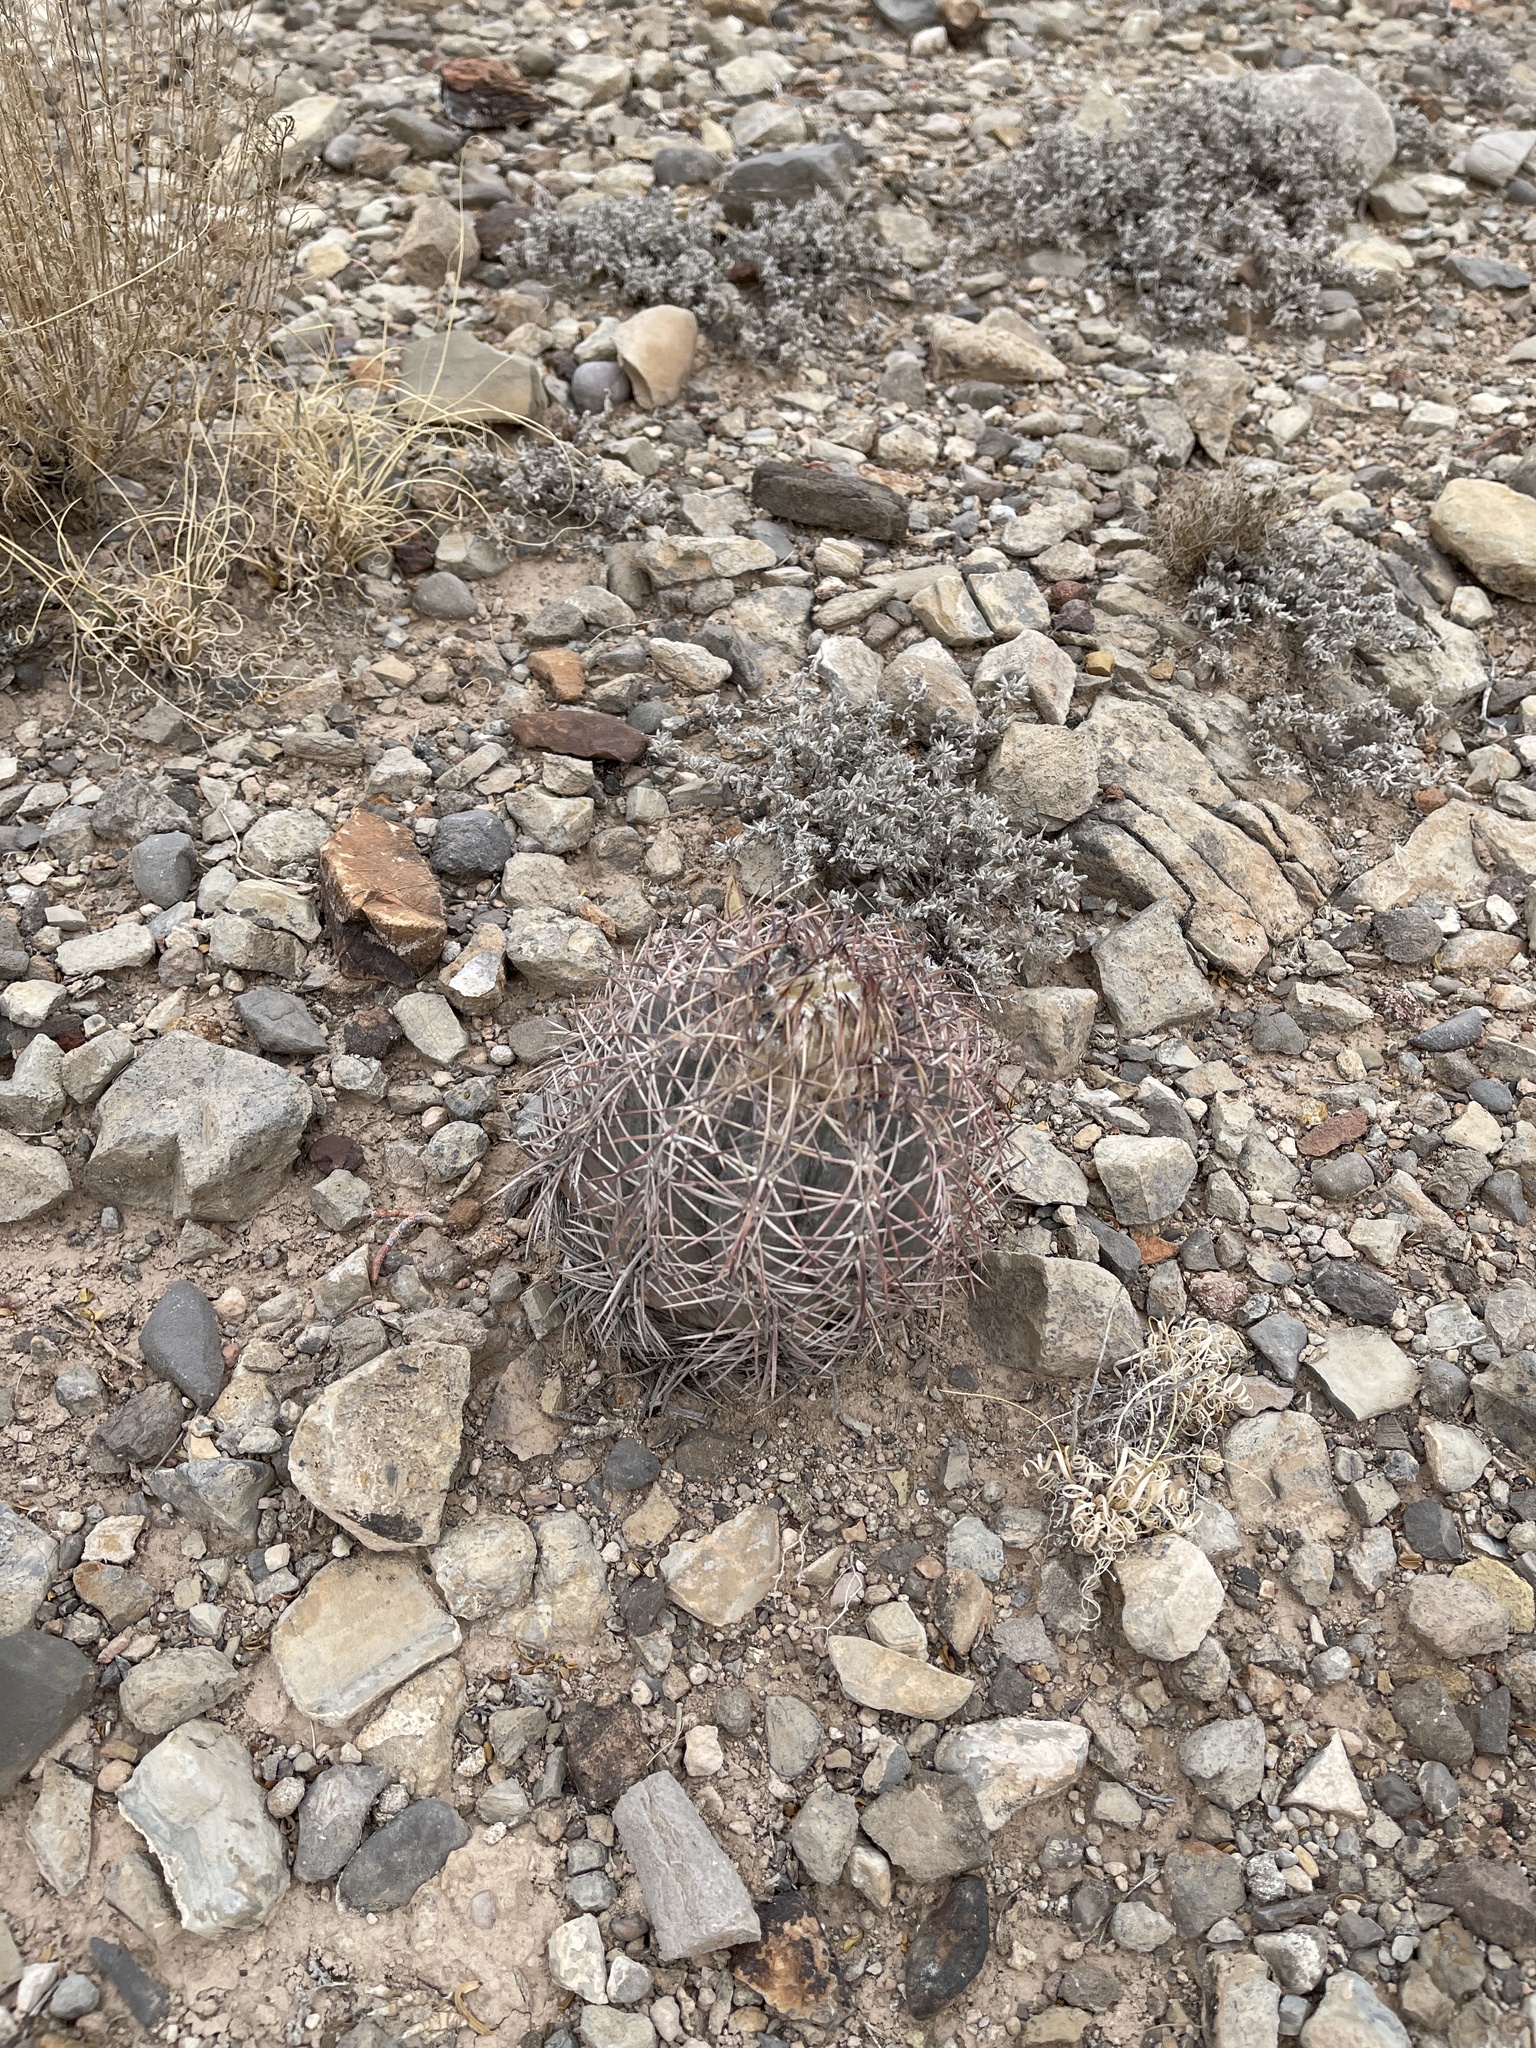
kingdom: Plantae
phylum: Tracheophyta
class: Magnoliopsida
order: Caryophyllales
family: Cactaceae
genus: Echinocactus
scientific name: Echinocactus horizonthalonius
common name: Devilshead
